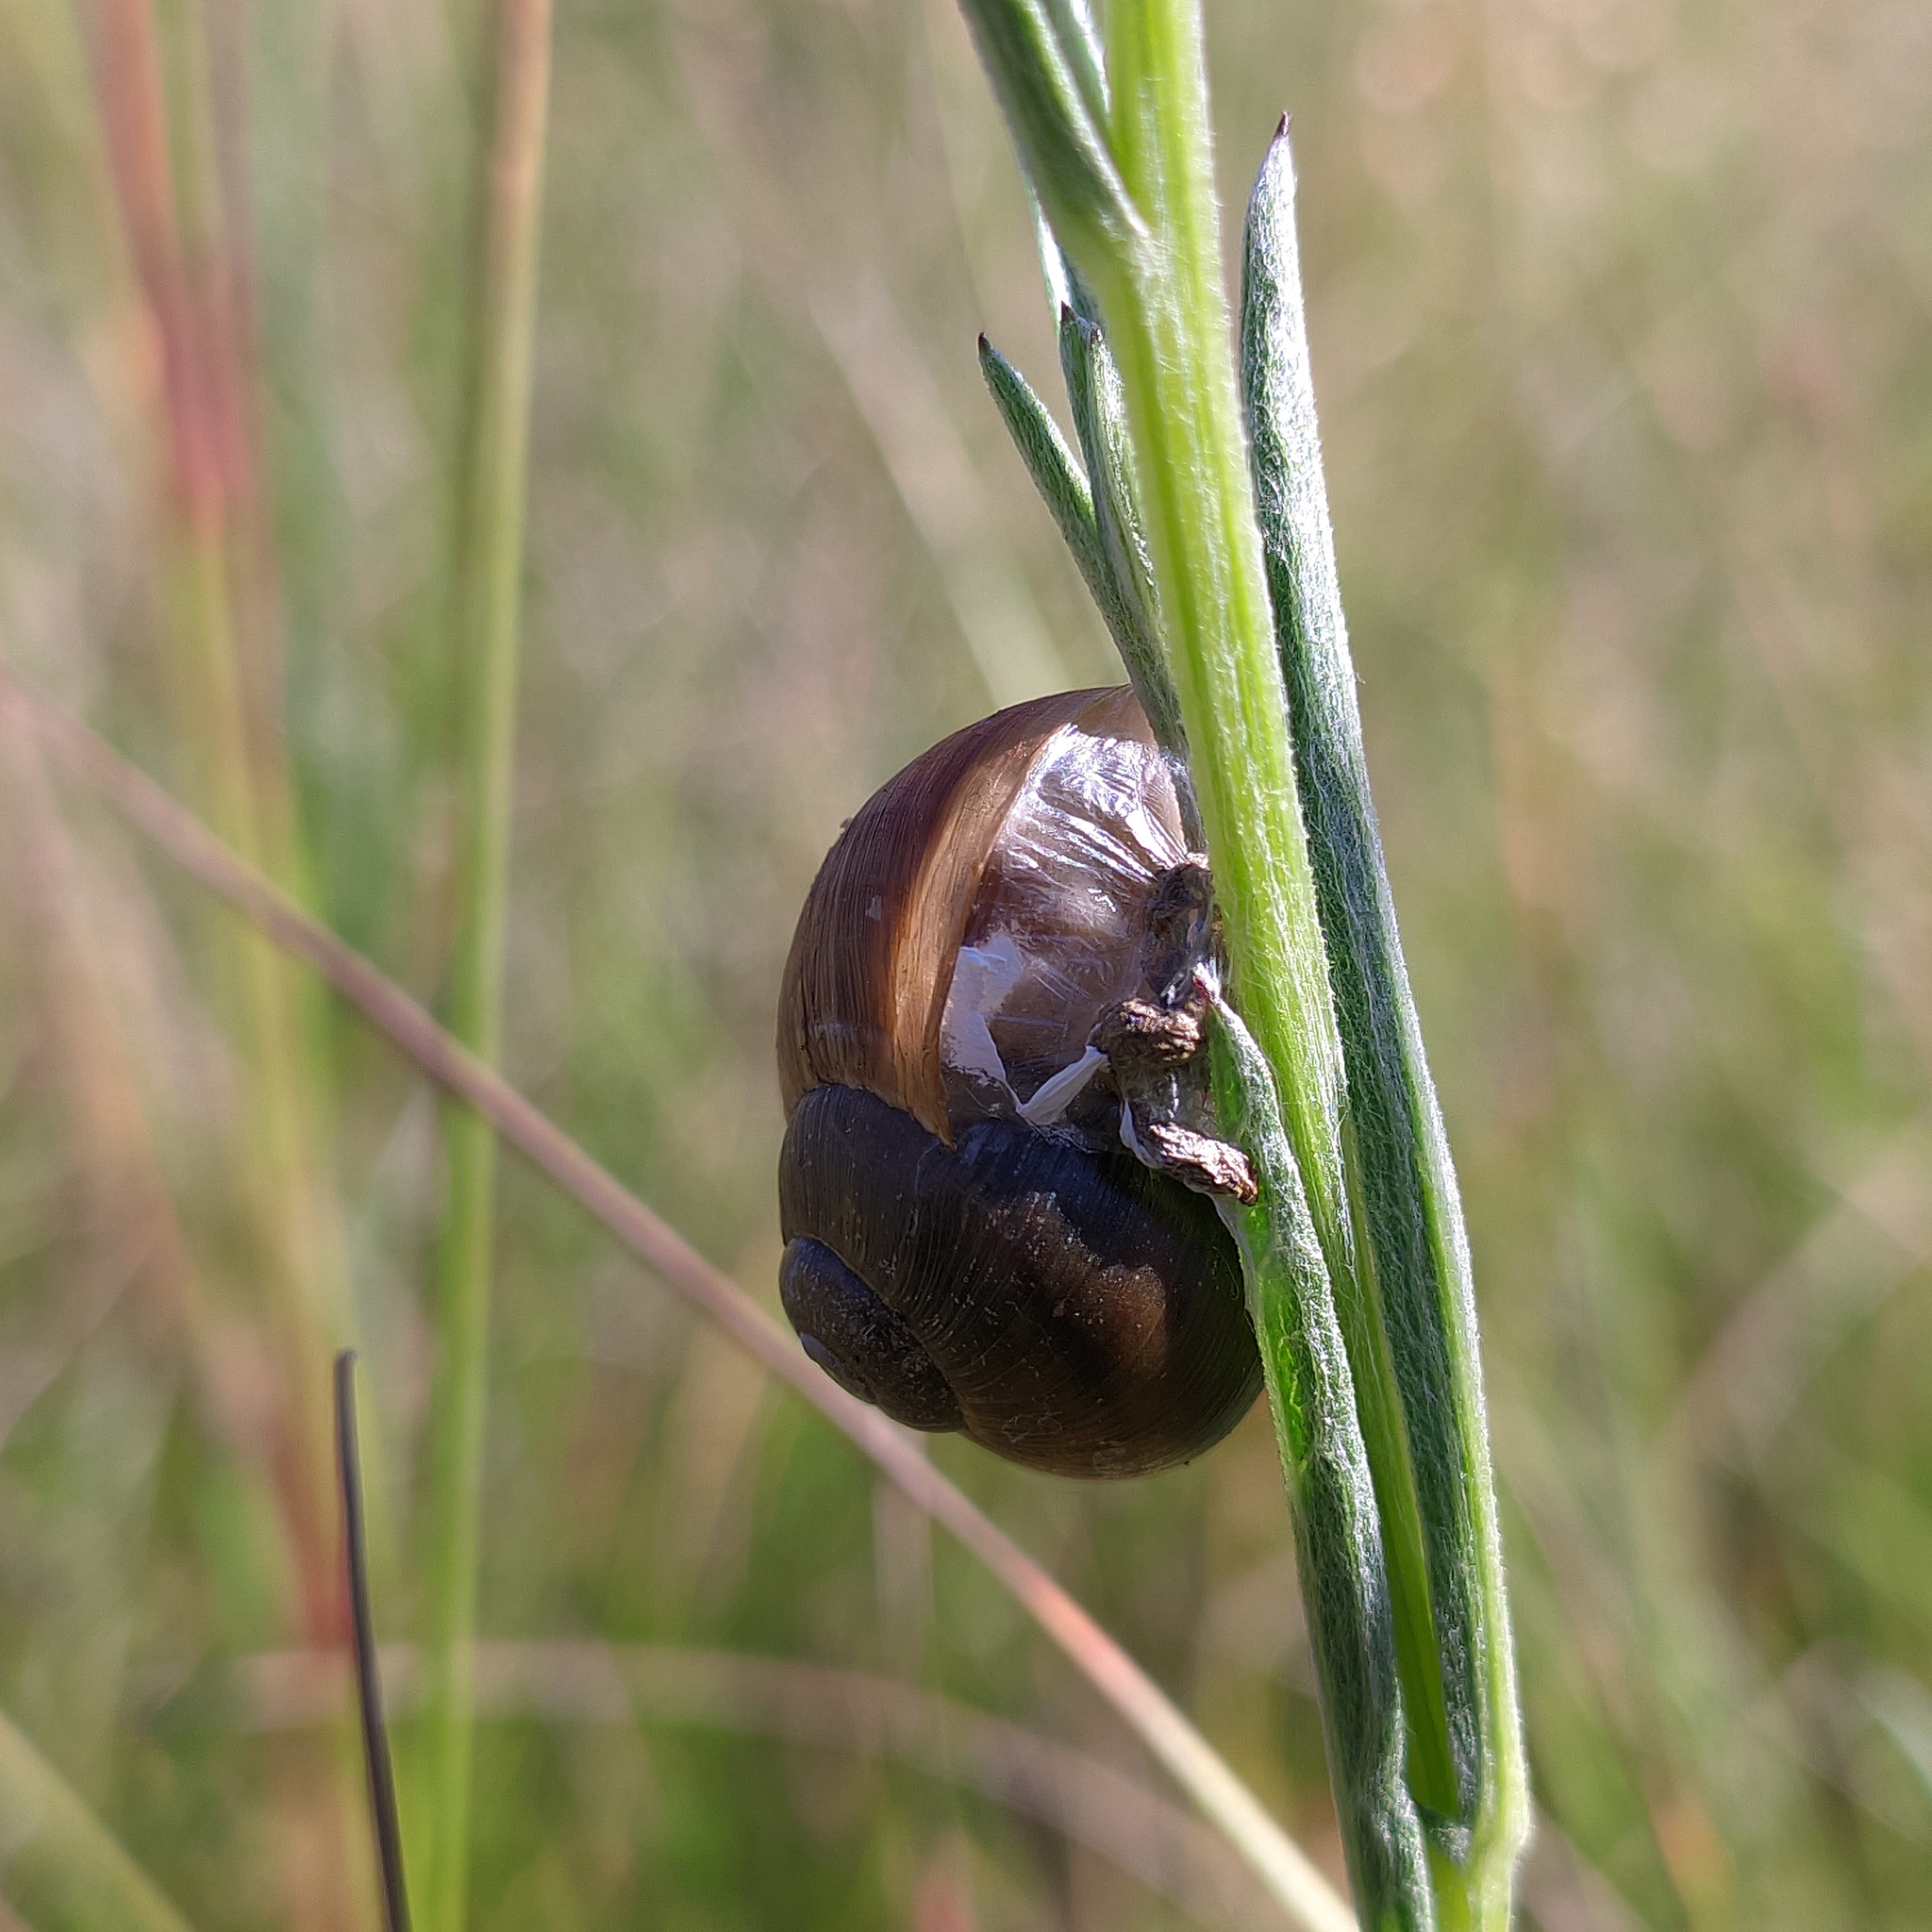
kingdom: Animalia
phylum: Mollusca
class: Gastropoda
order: Stylommatophora
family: Helicidae
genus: Helix
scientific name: Helix pomatia
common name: Roman snail
